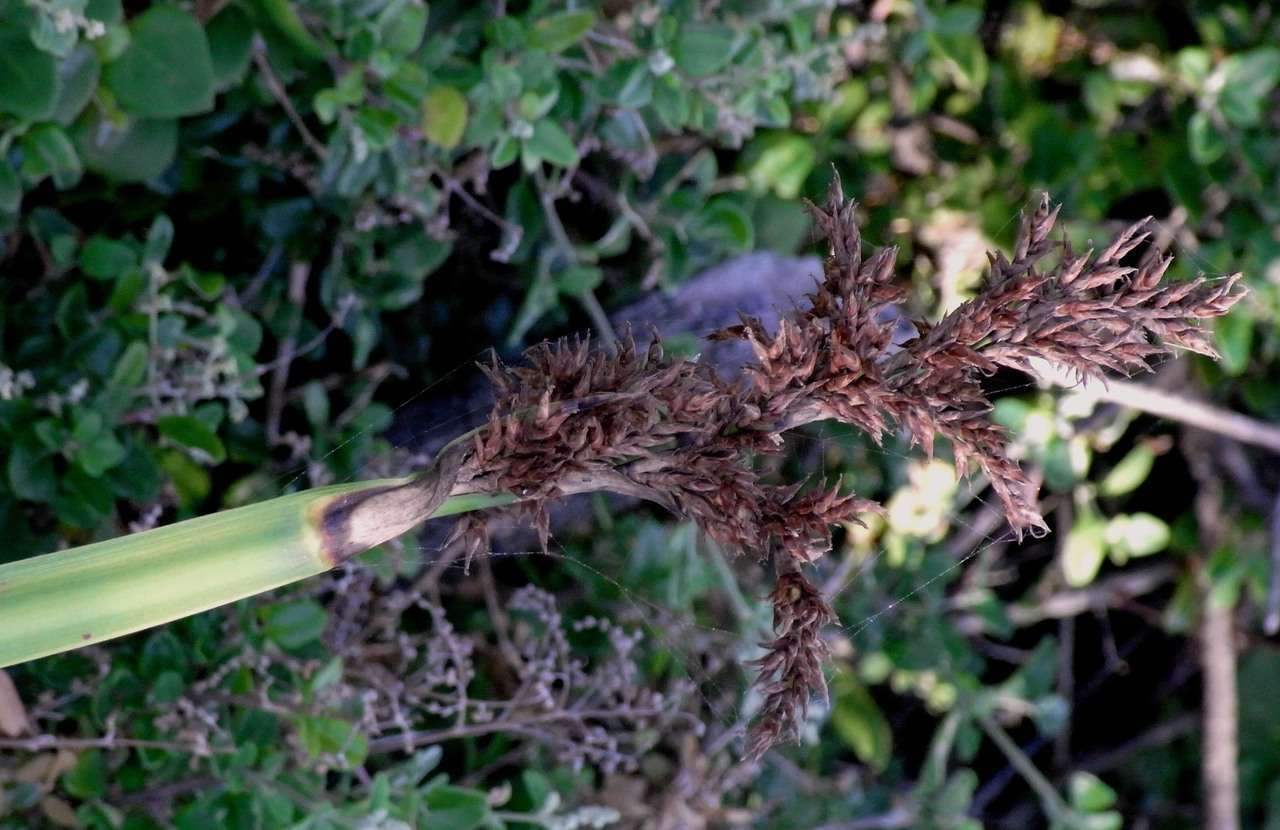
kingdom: Plantae
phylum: Tracheophyta
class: Liliopsida
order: Poales
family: Cyperaceae
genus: Lepidosperma
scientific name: Lepidosperma gladiatum
